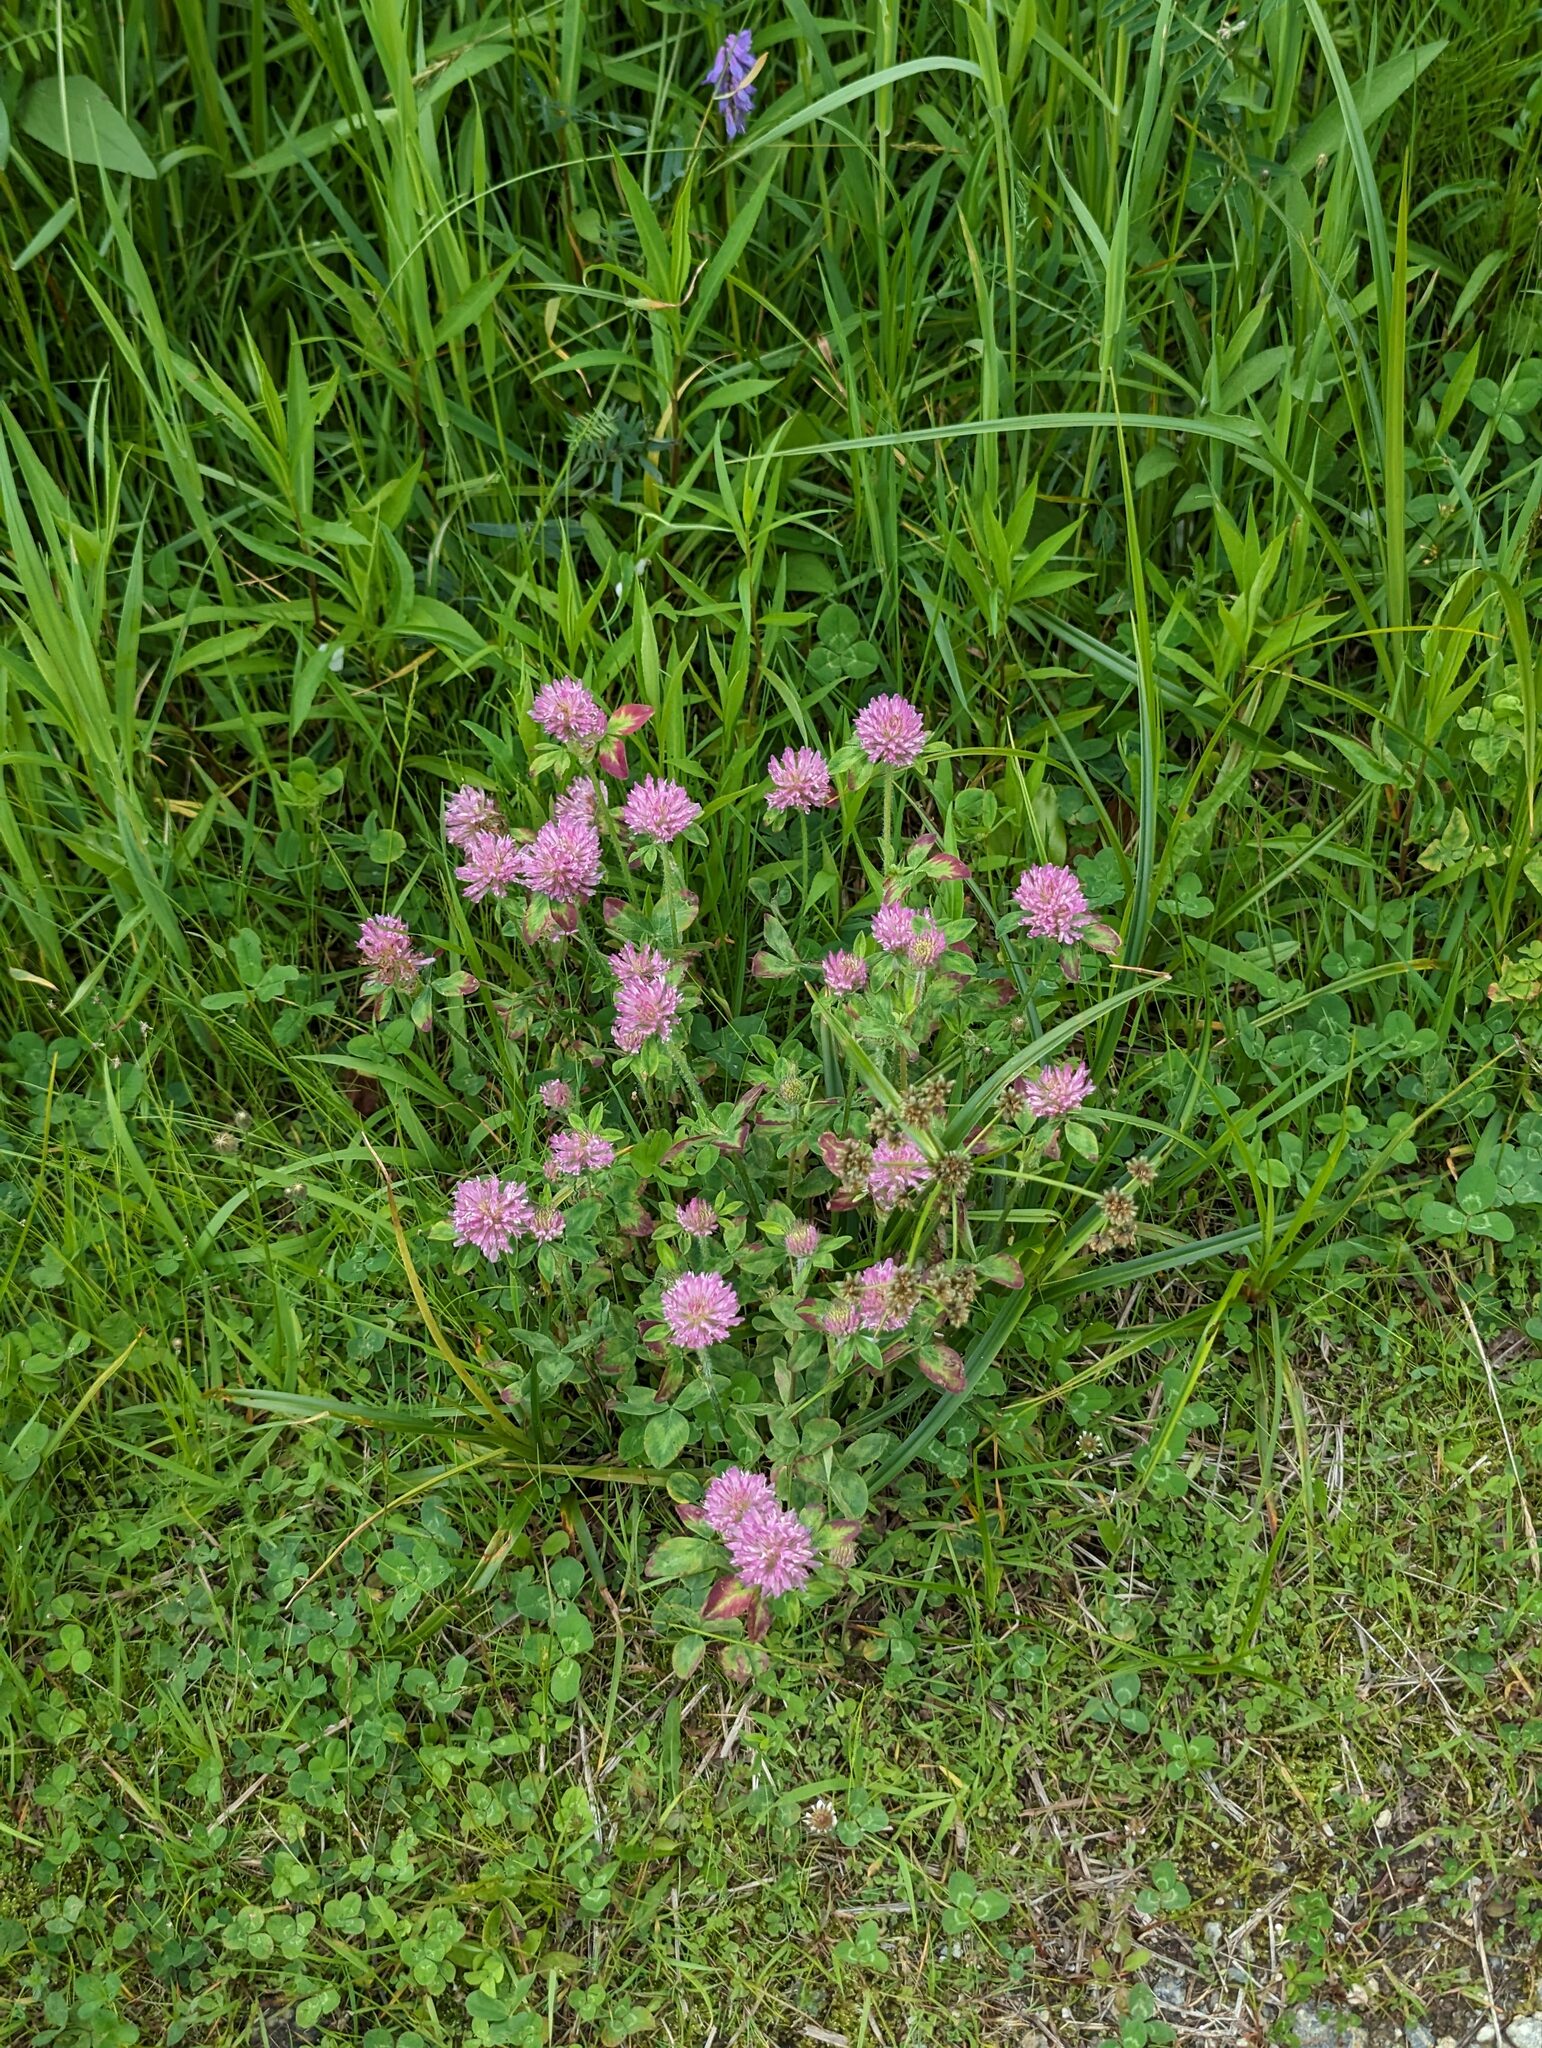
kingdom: Plantae
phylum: Tracheophyta
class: Magnoliopsida
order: Fabales
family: Fabaceae
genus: Trifolium
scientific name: Trifolium pratense
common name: Red clover
